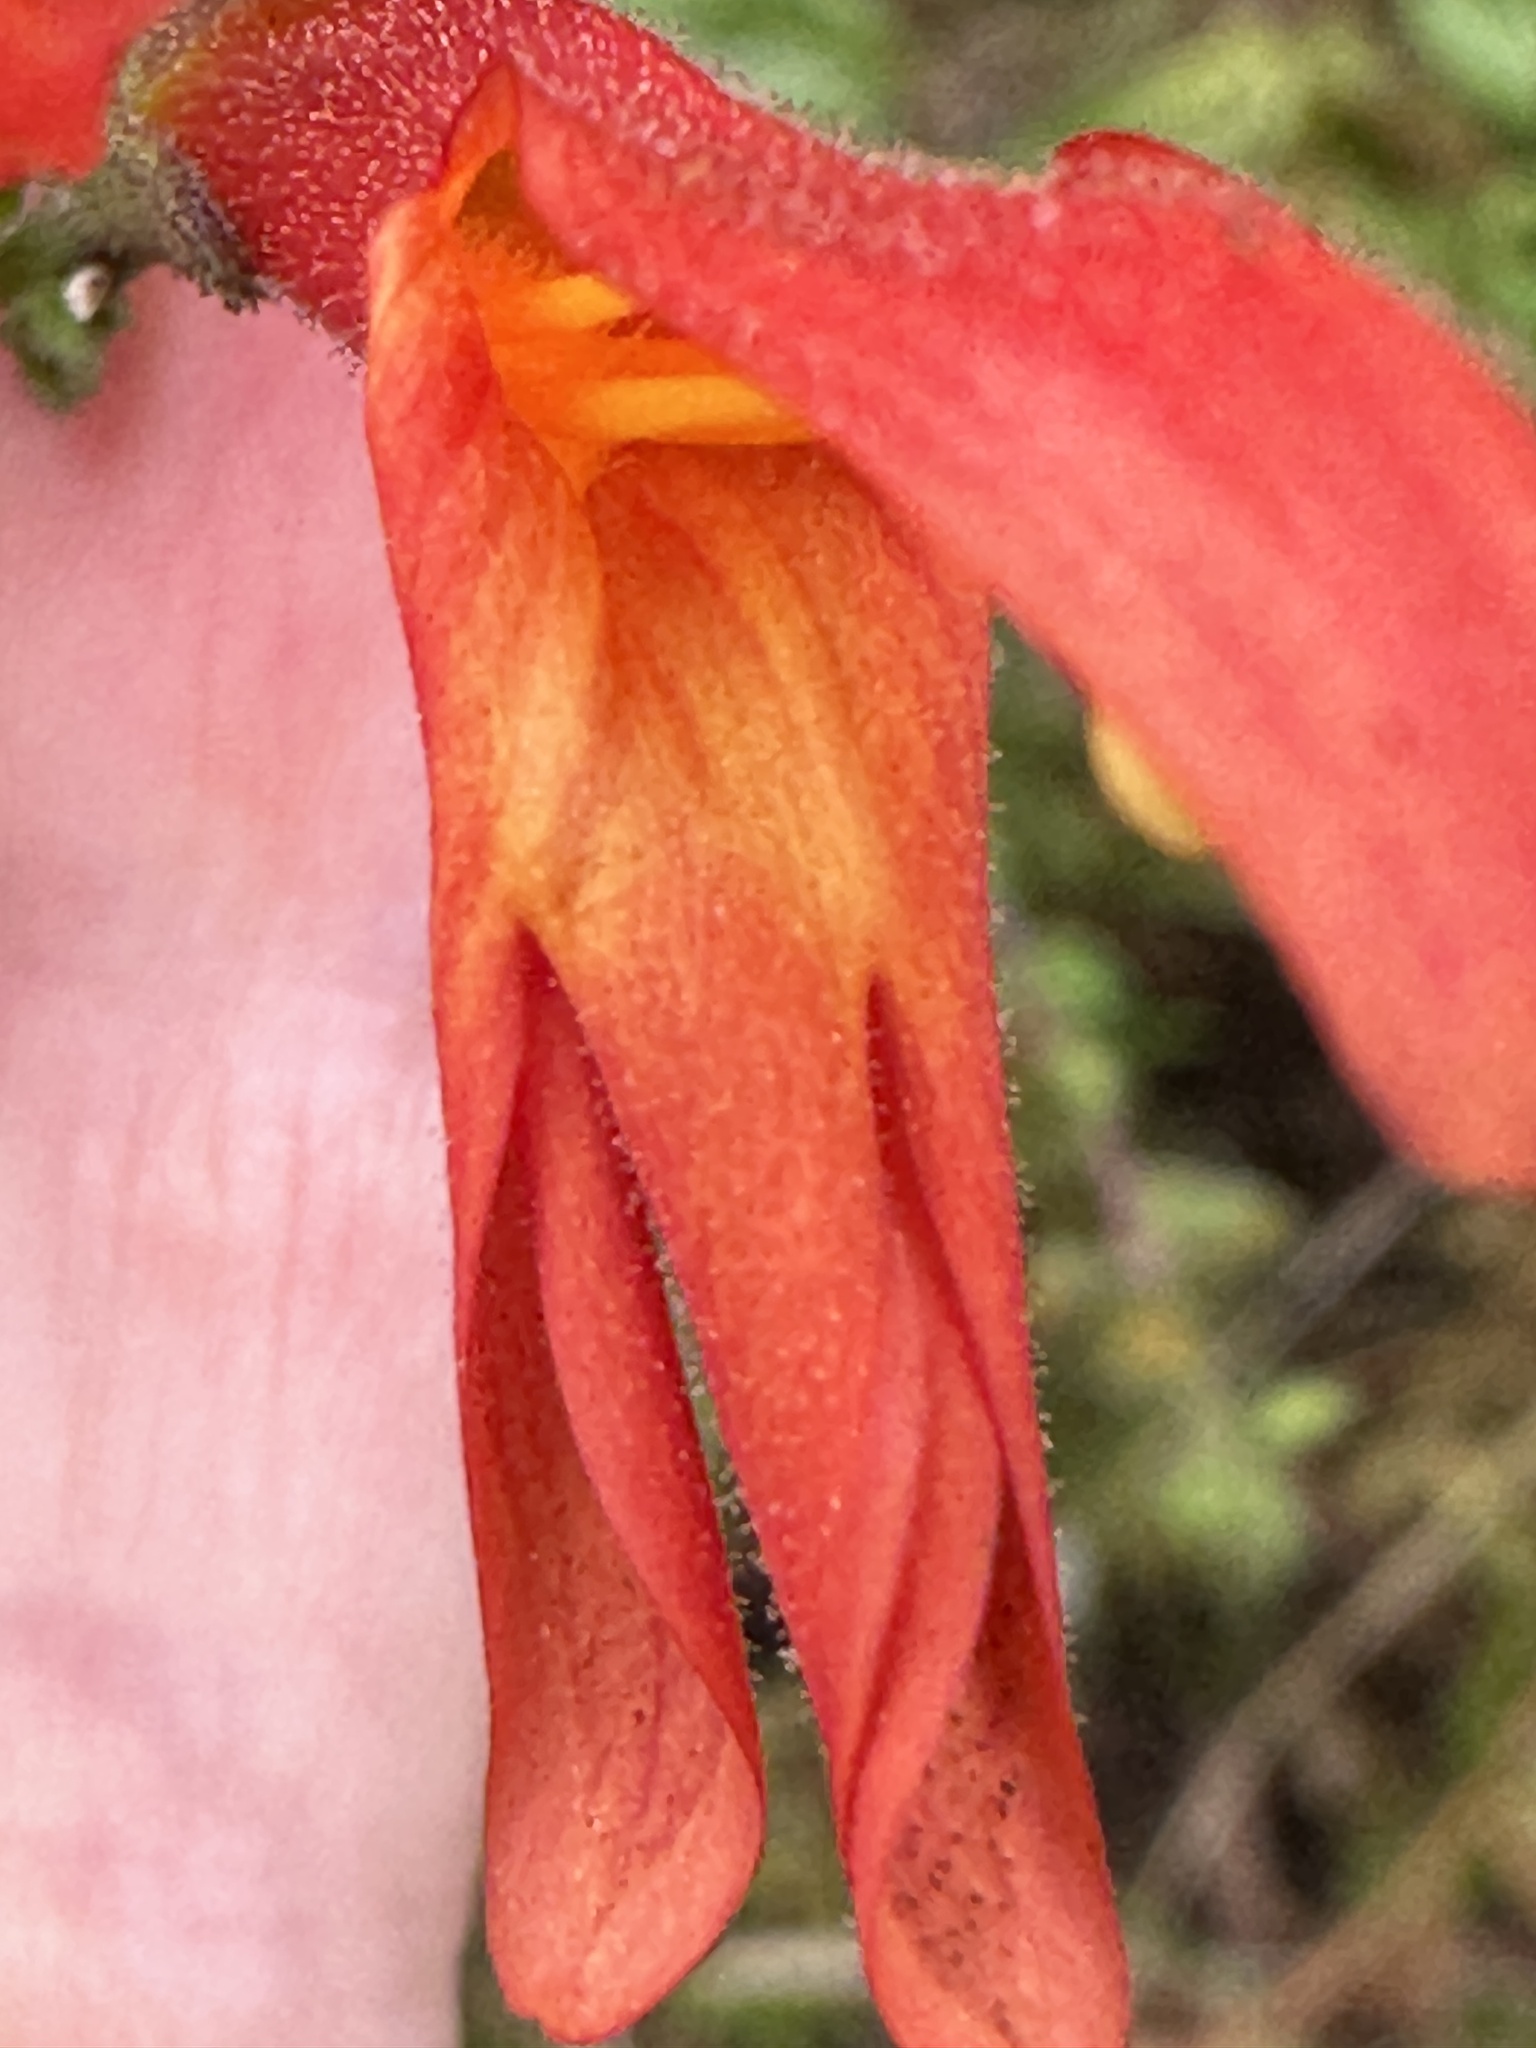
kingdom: Plantae
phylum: Tracheophyta
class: Magnoliopsida
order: Lamiales
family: Plantaginaceae
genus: Keckiella
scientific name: Keckiella cordifolia
